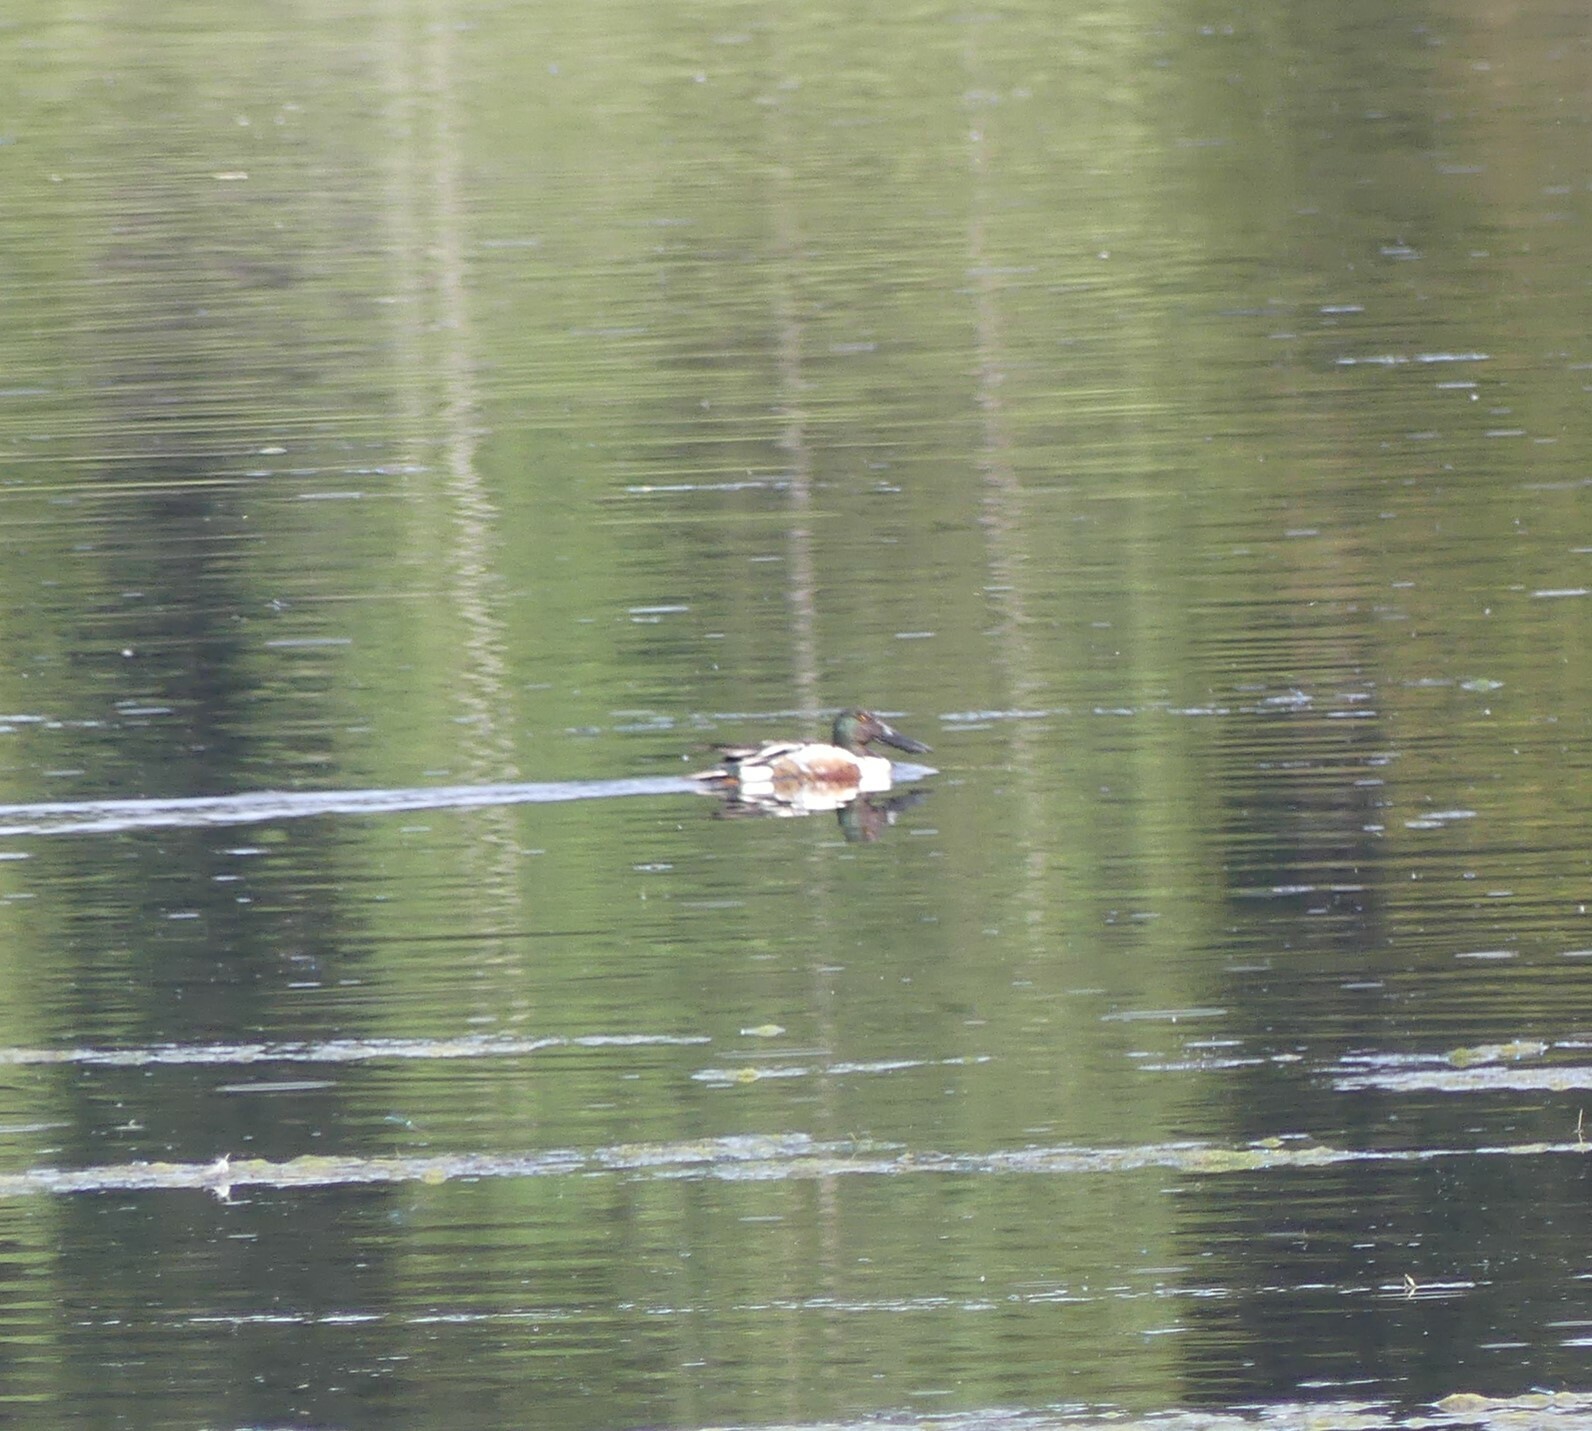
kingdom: Animalia
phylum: Chordata
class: Aves
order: Anseriformes
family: Anatidae
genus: Spatula
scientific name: Spatula clypeata
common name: Northern shoveler
